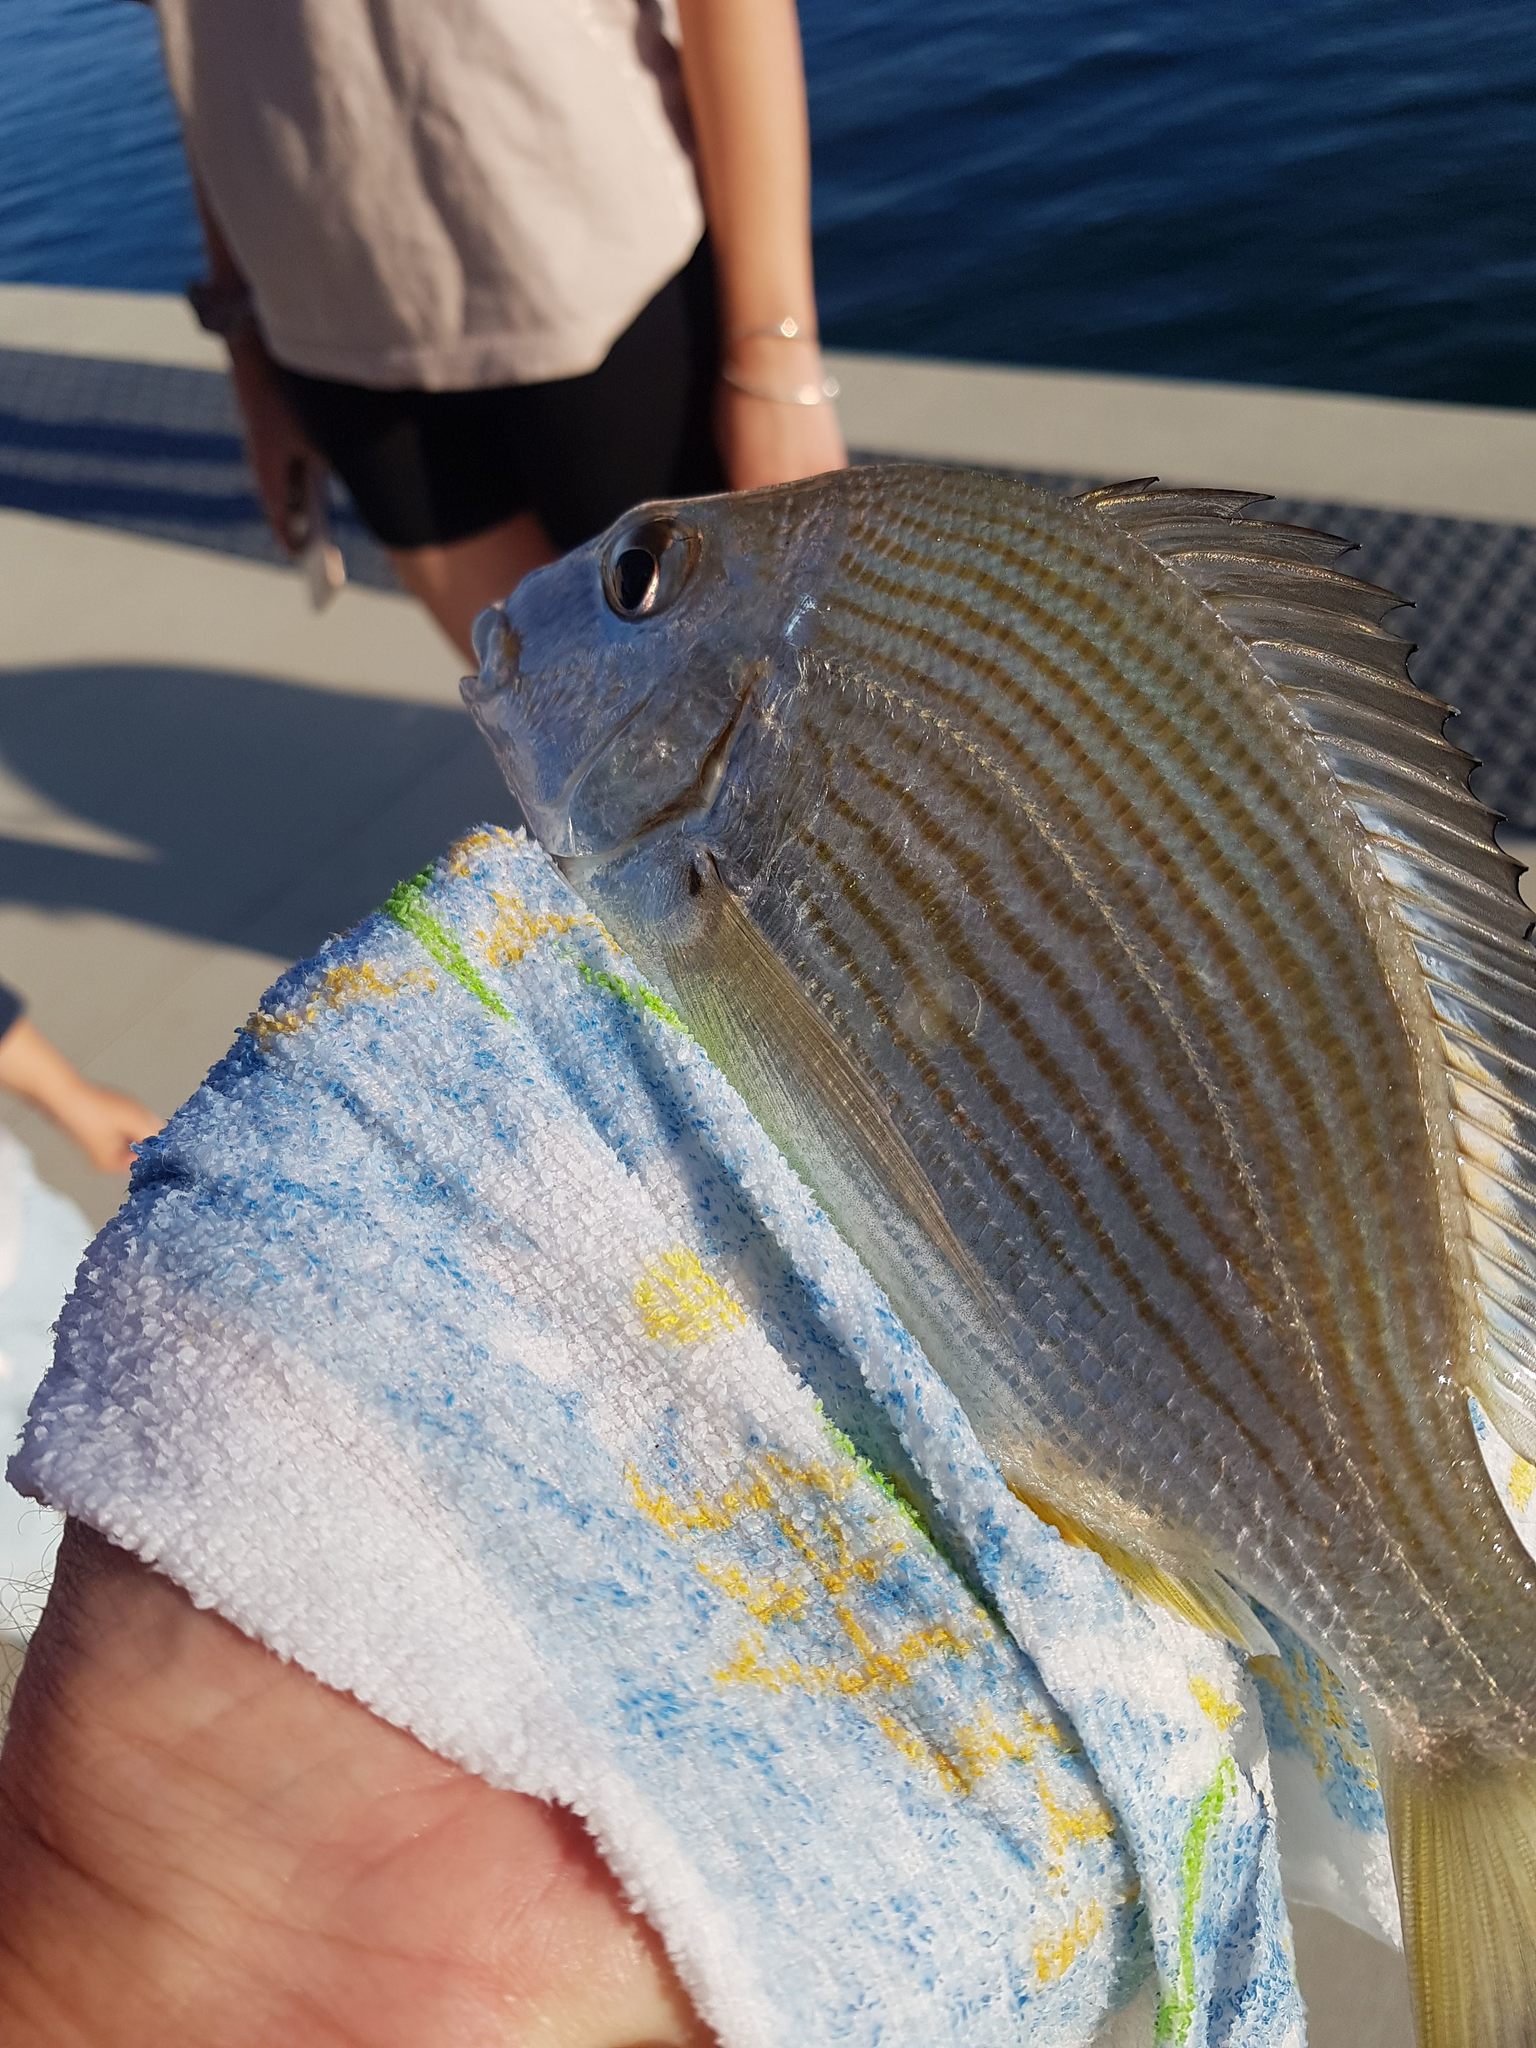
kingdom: Animalia
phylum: Chordata
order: Perciformes
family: Sparidae
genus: Rhabdosargus
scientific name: Rhabdosargus sarba
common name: Goldlined seabream
